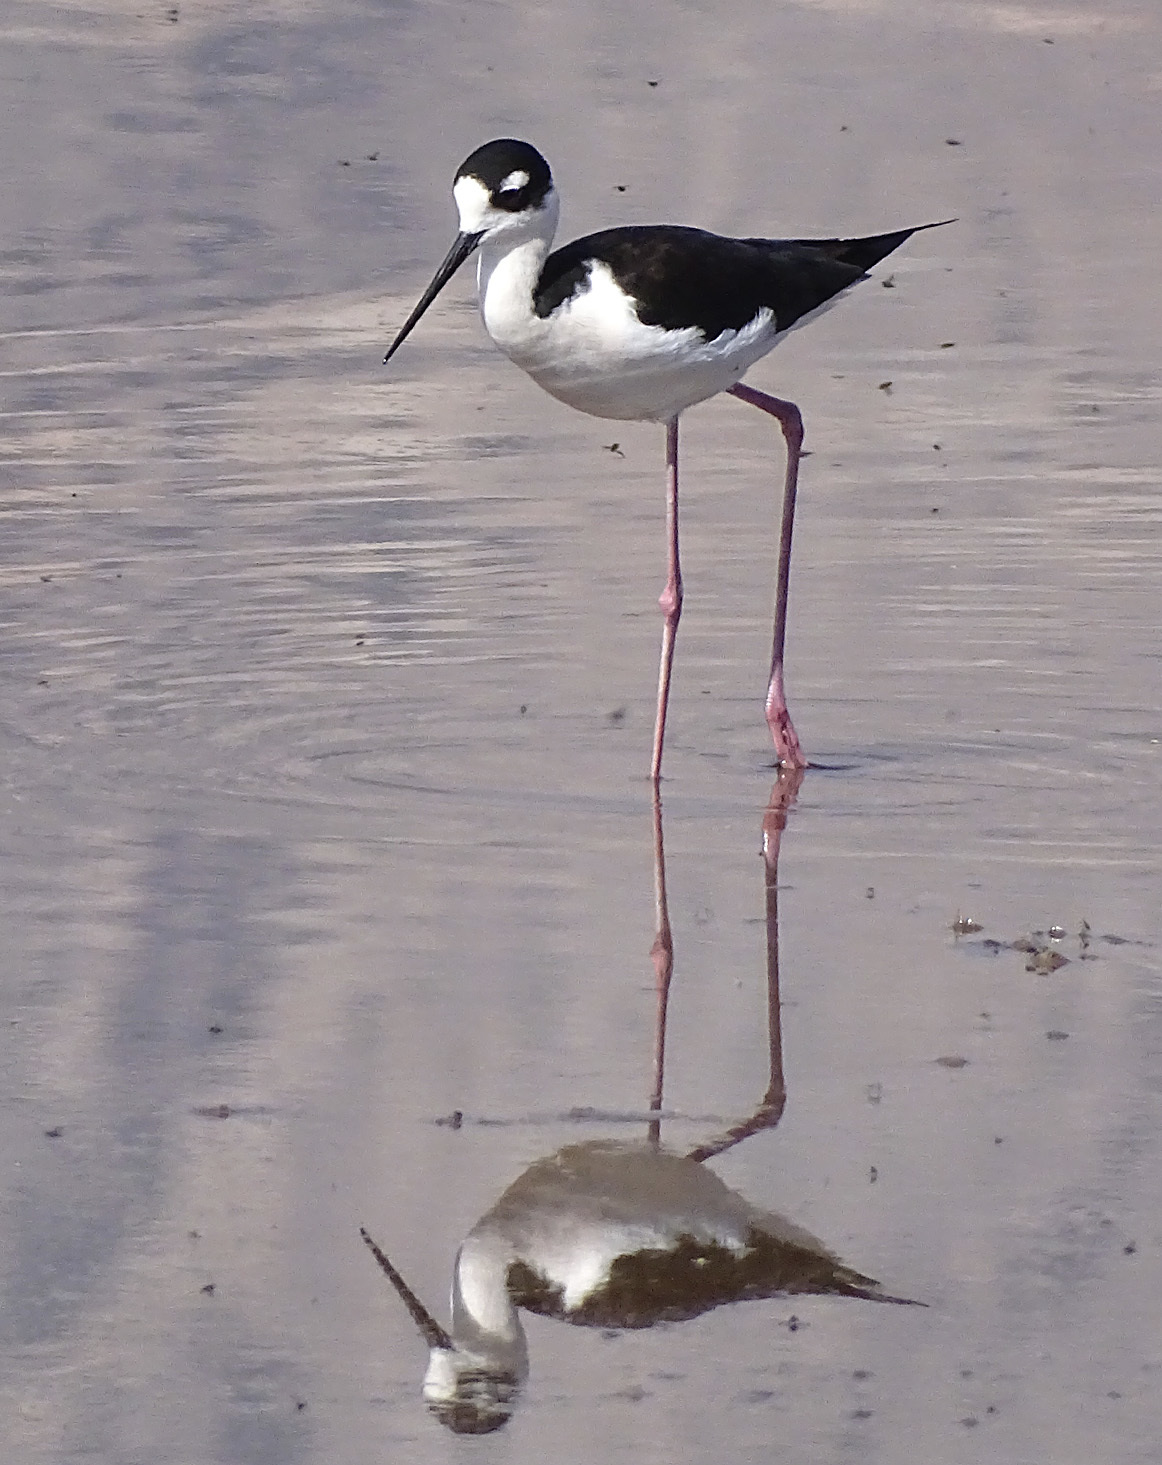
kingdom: Animalia
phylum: Chordata
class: Aves
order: Charadriiformes
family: Recurvirostridae
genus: Himantopus
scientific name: Himantopus mexicanus
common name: Black-necked stilt
